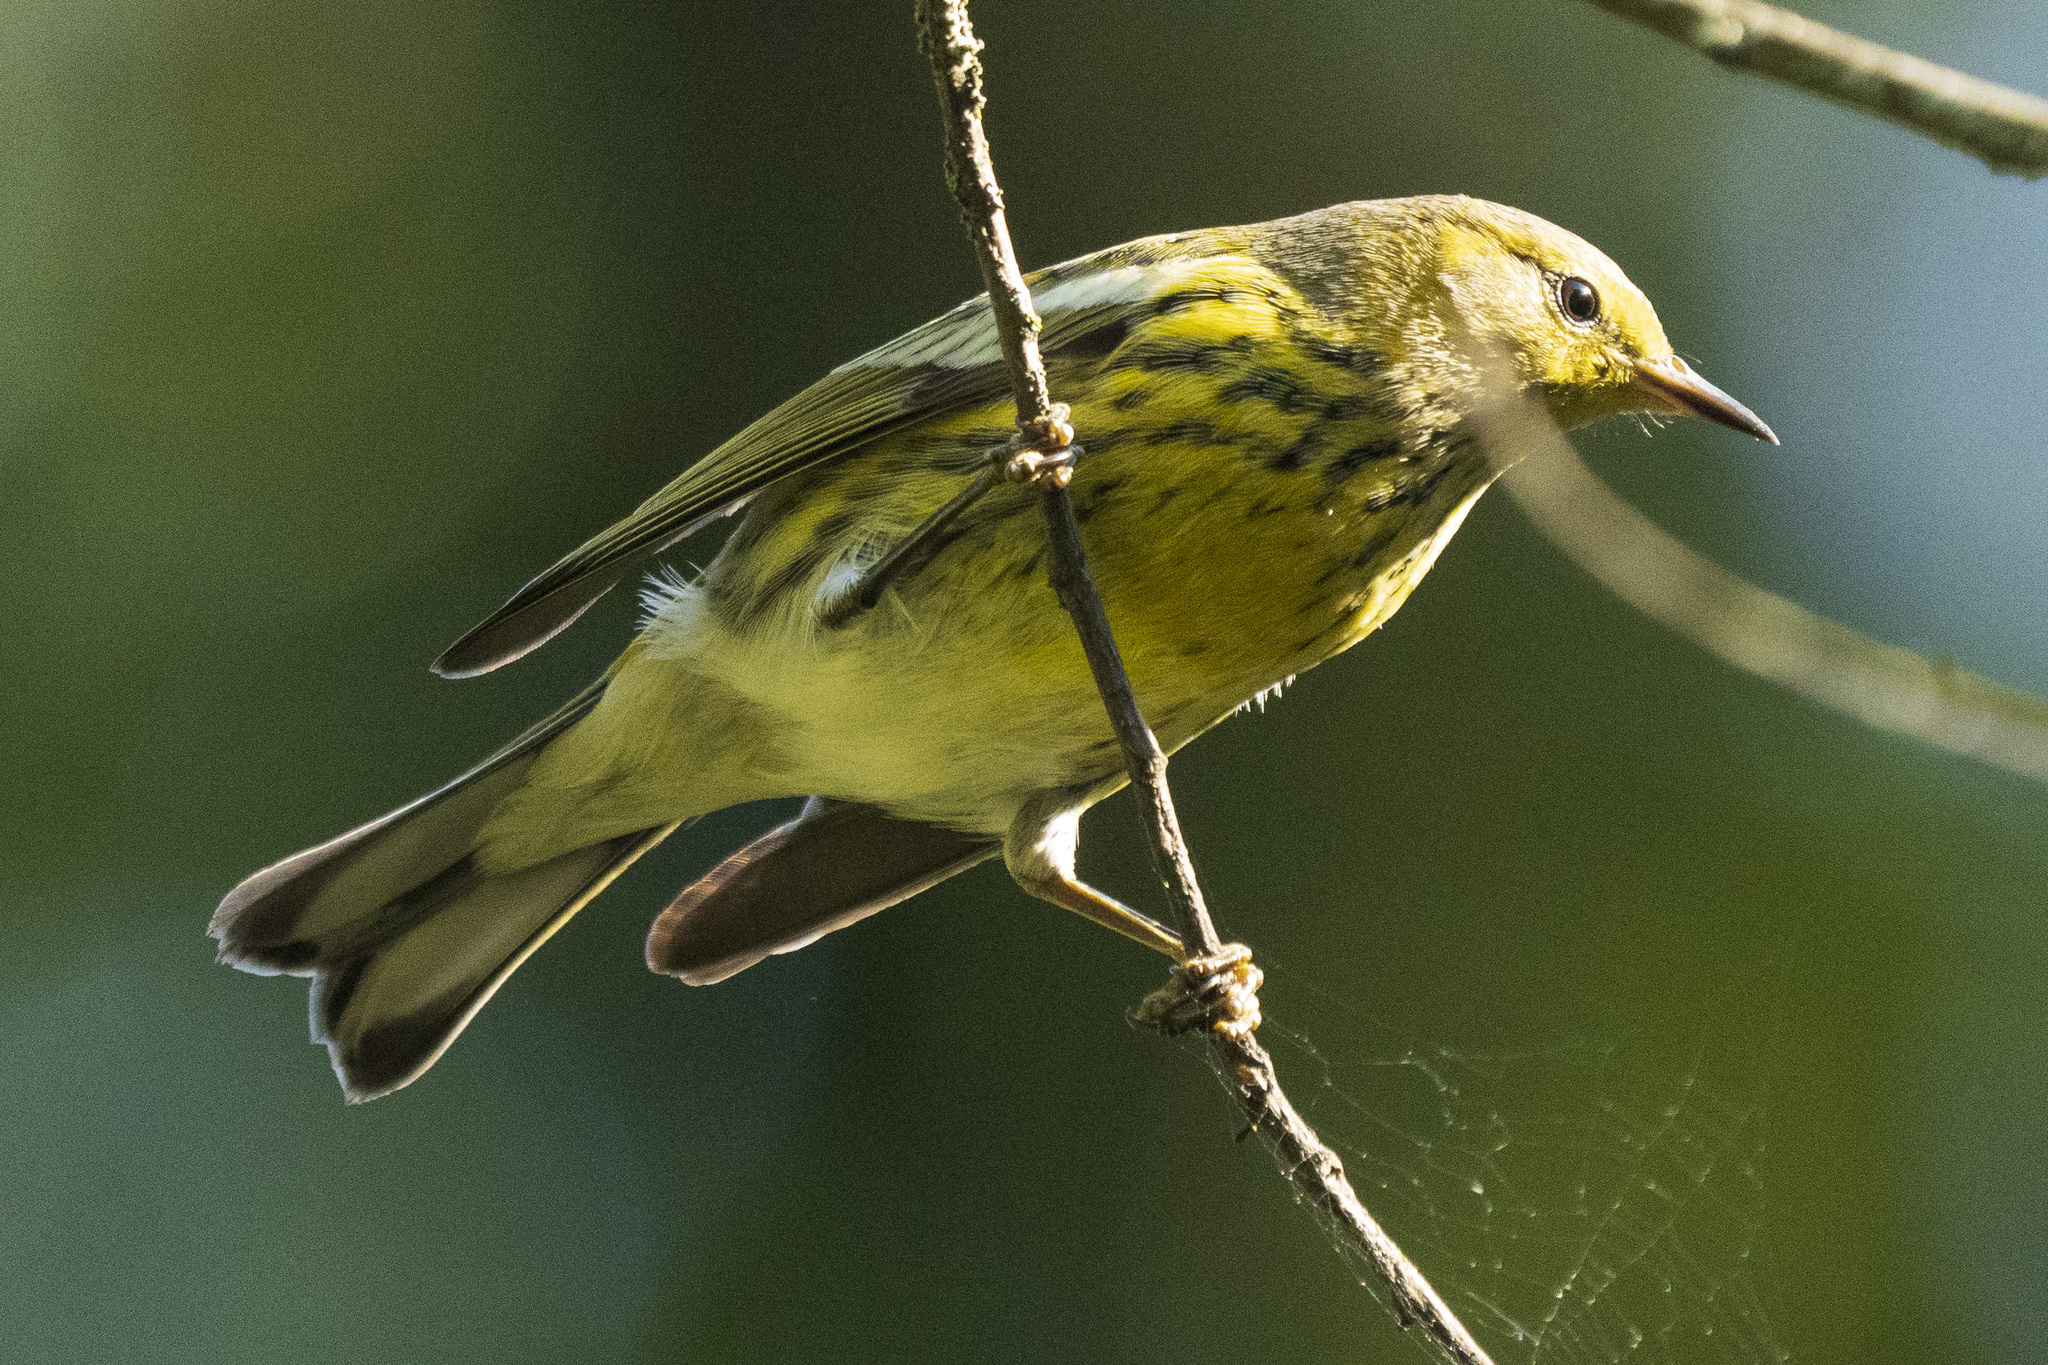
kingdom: Animalia
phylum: Chordata
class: Aves
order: Passeriformes
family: Parulidae
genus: Setophaga
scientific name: Setophaga tigrina
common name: Cape may warbler
